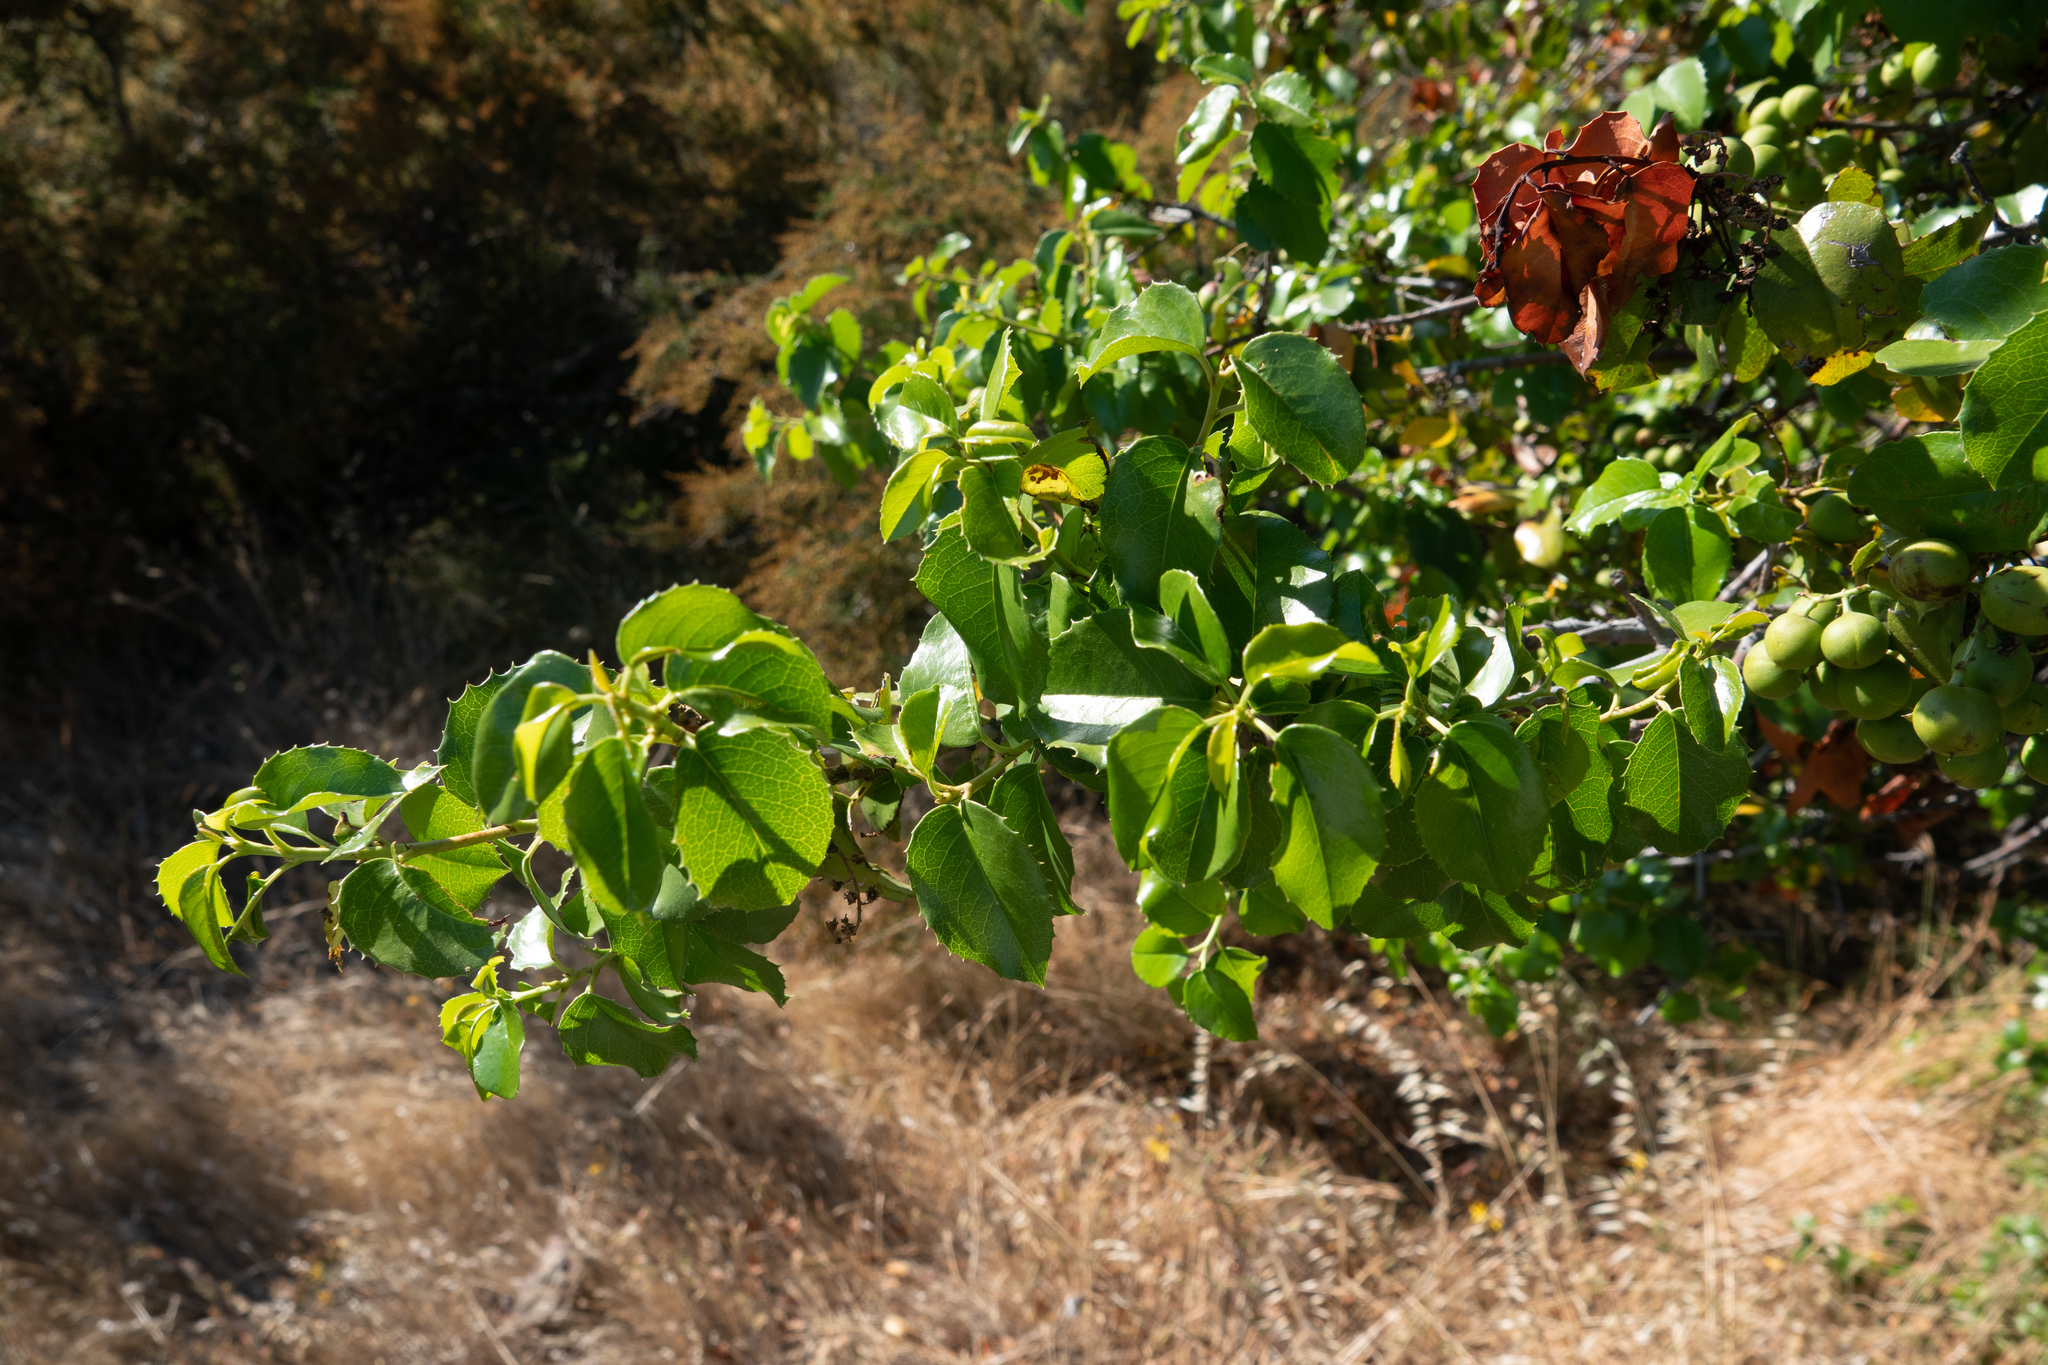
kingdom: Plantae
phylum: Tracheophyta
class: Magnoliopsida
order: Rosales
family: Rosaceae
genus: Prunus
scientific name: Prunus ilicifolia
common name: Hollyleaf cherry
